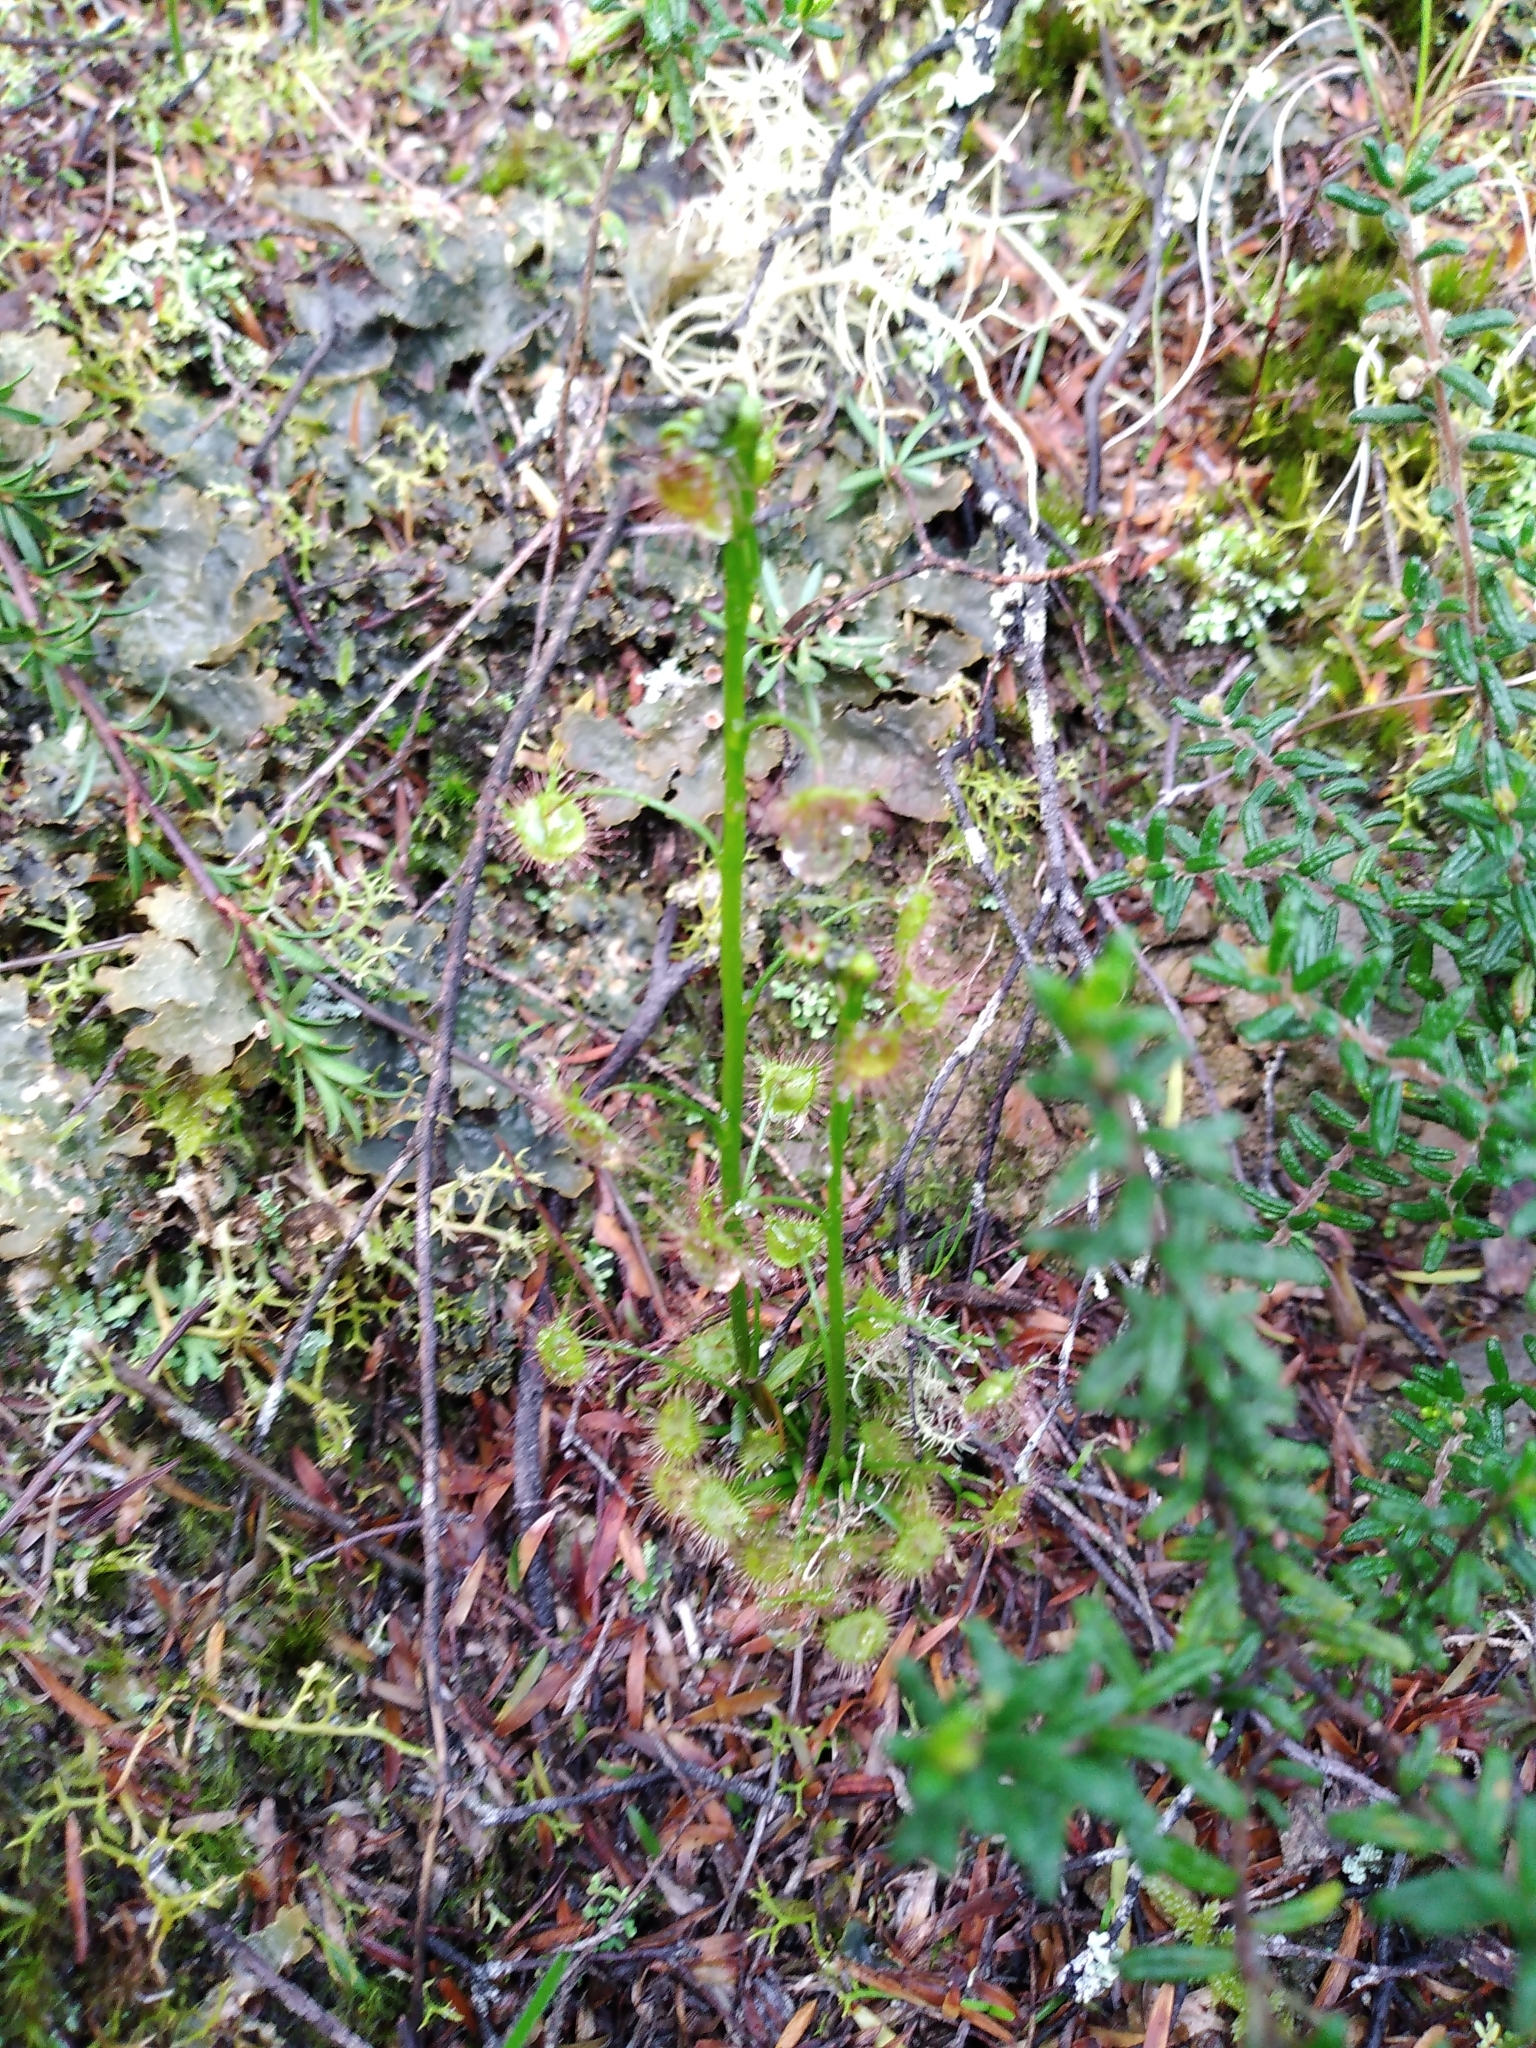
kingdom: Plantae
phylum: Tracheophyta
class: Magnoliopsida
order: Caryophyllales
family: Droseraceae
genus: Drosera
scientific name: Drosera peltata
